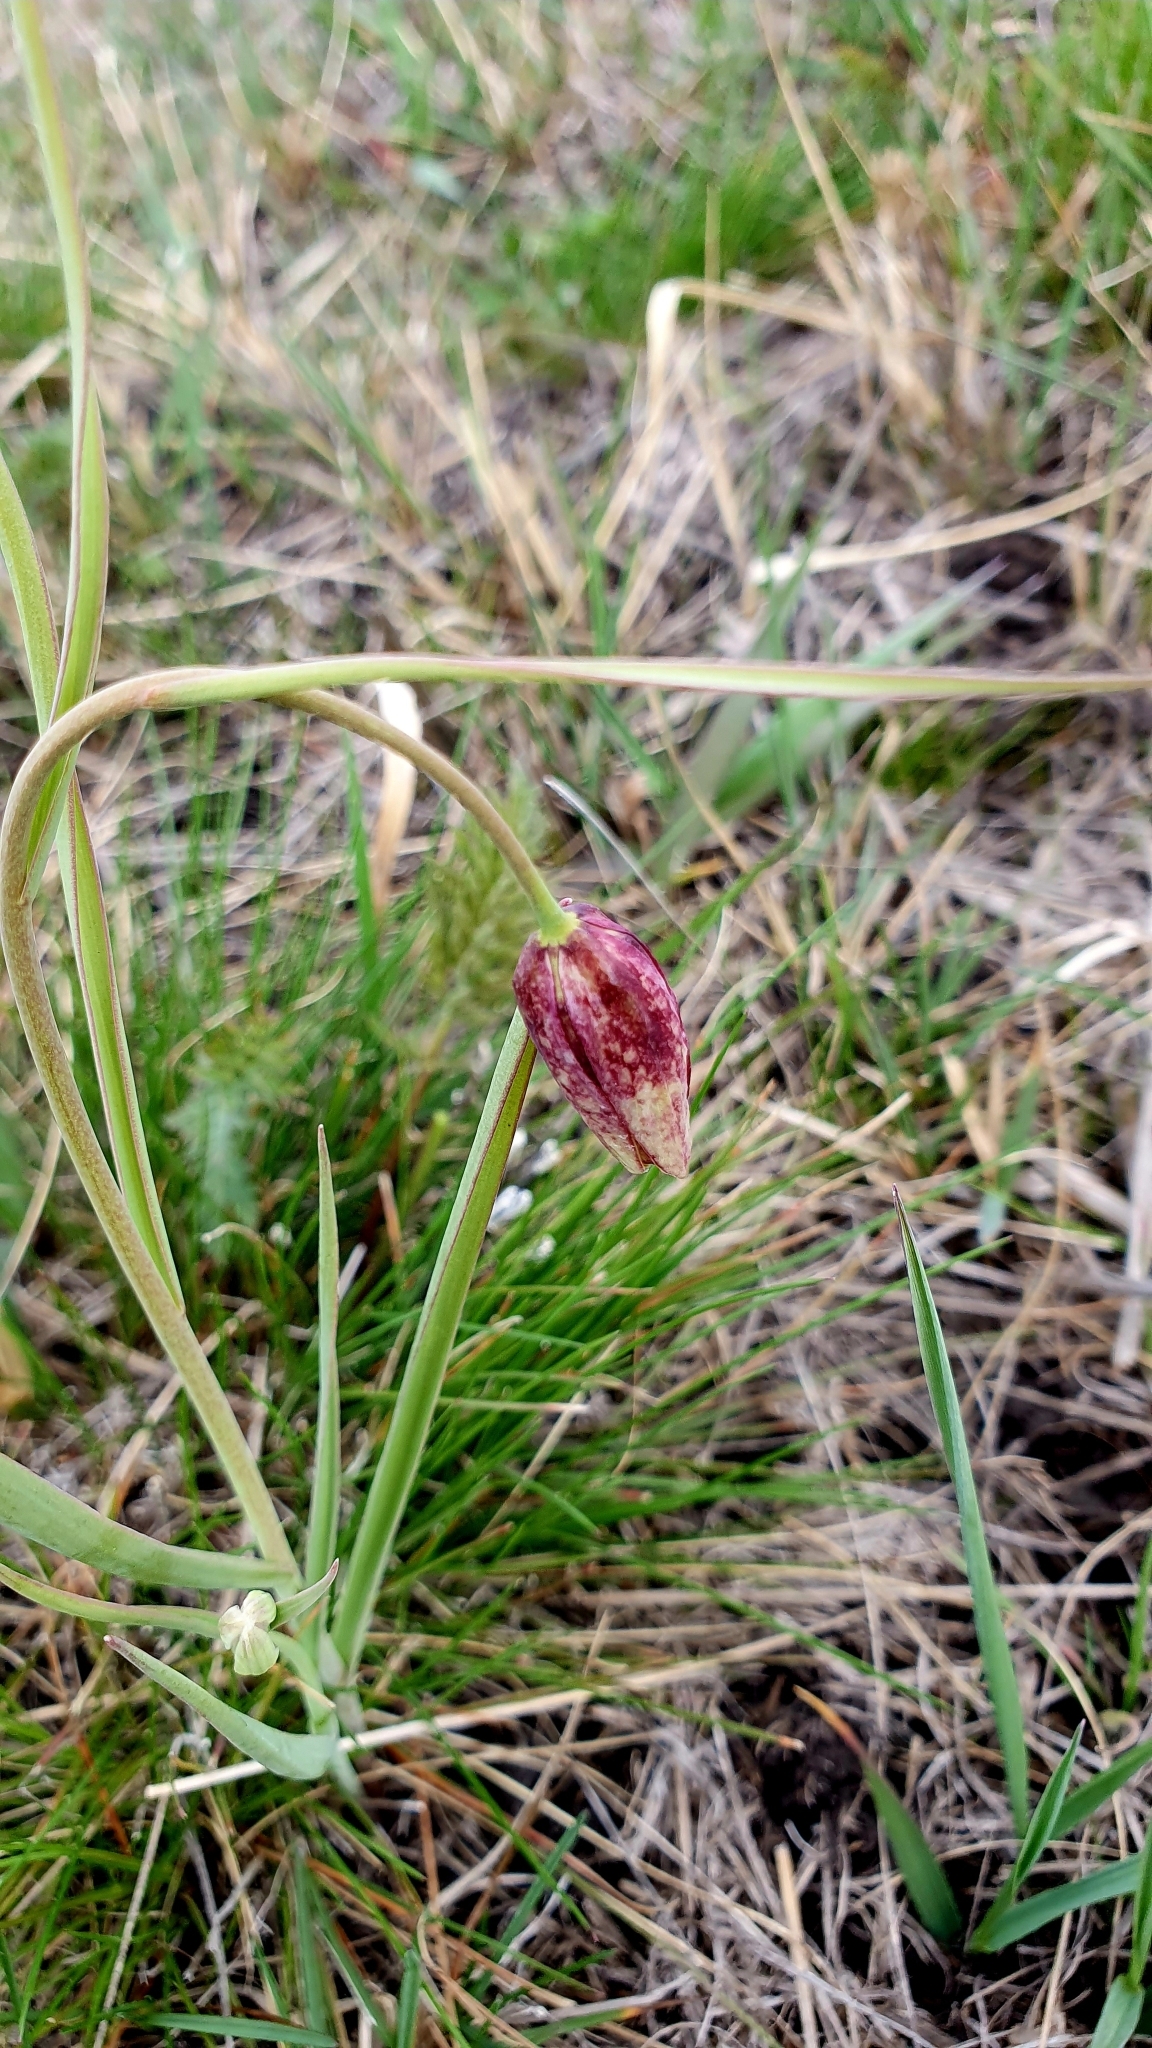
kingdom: Plantae
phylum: Tracheophyta
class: Liliopsida
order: Liliales
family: Liliaceae
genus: Fritillaria
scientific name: Fritillaria meleagroides
